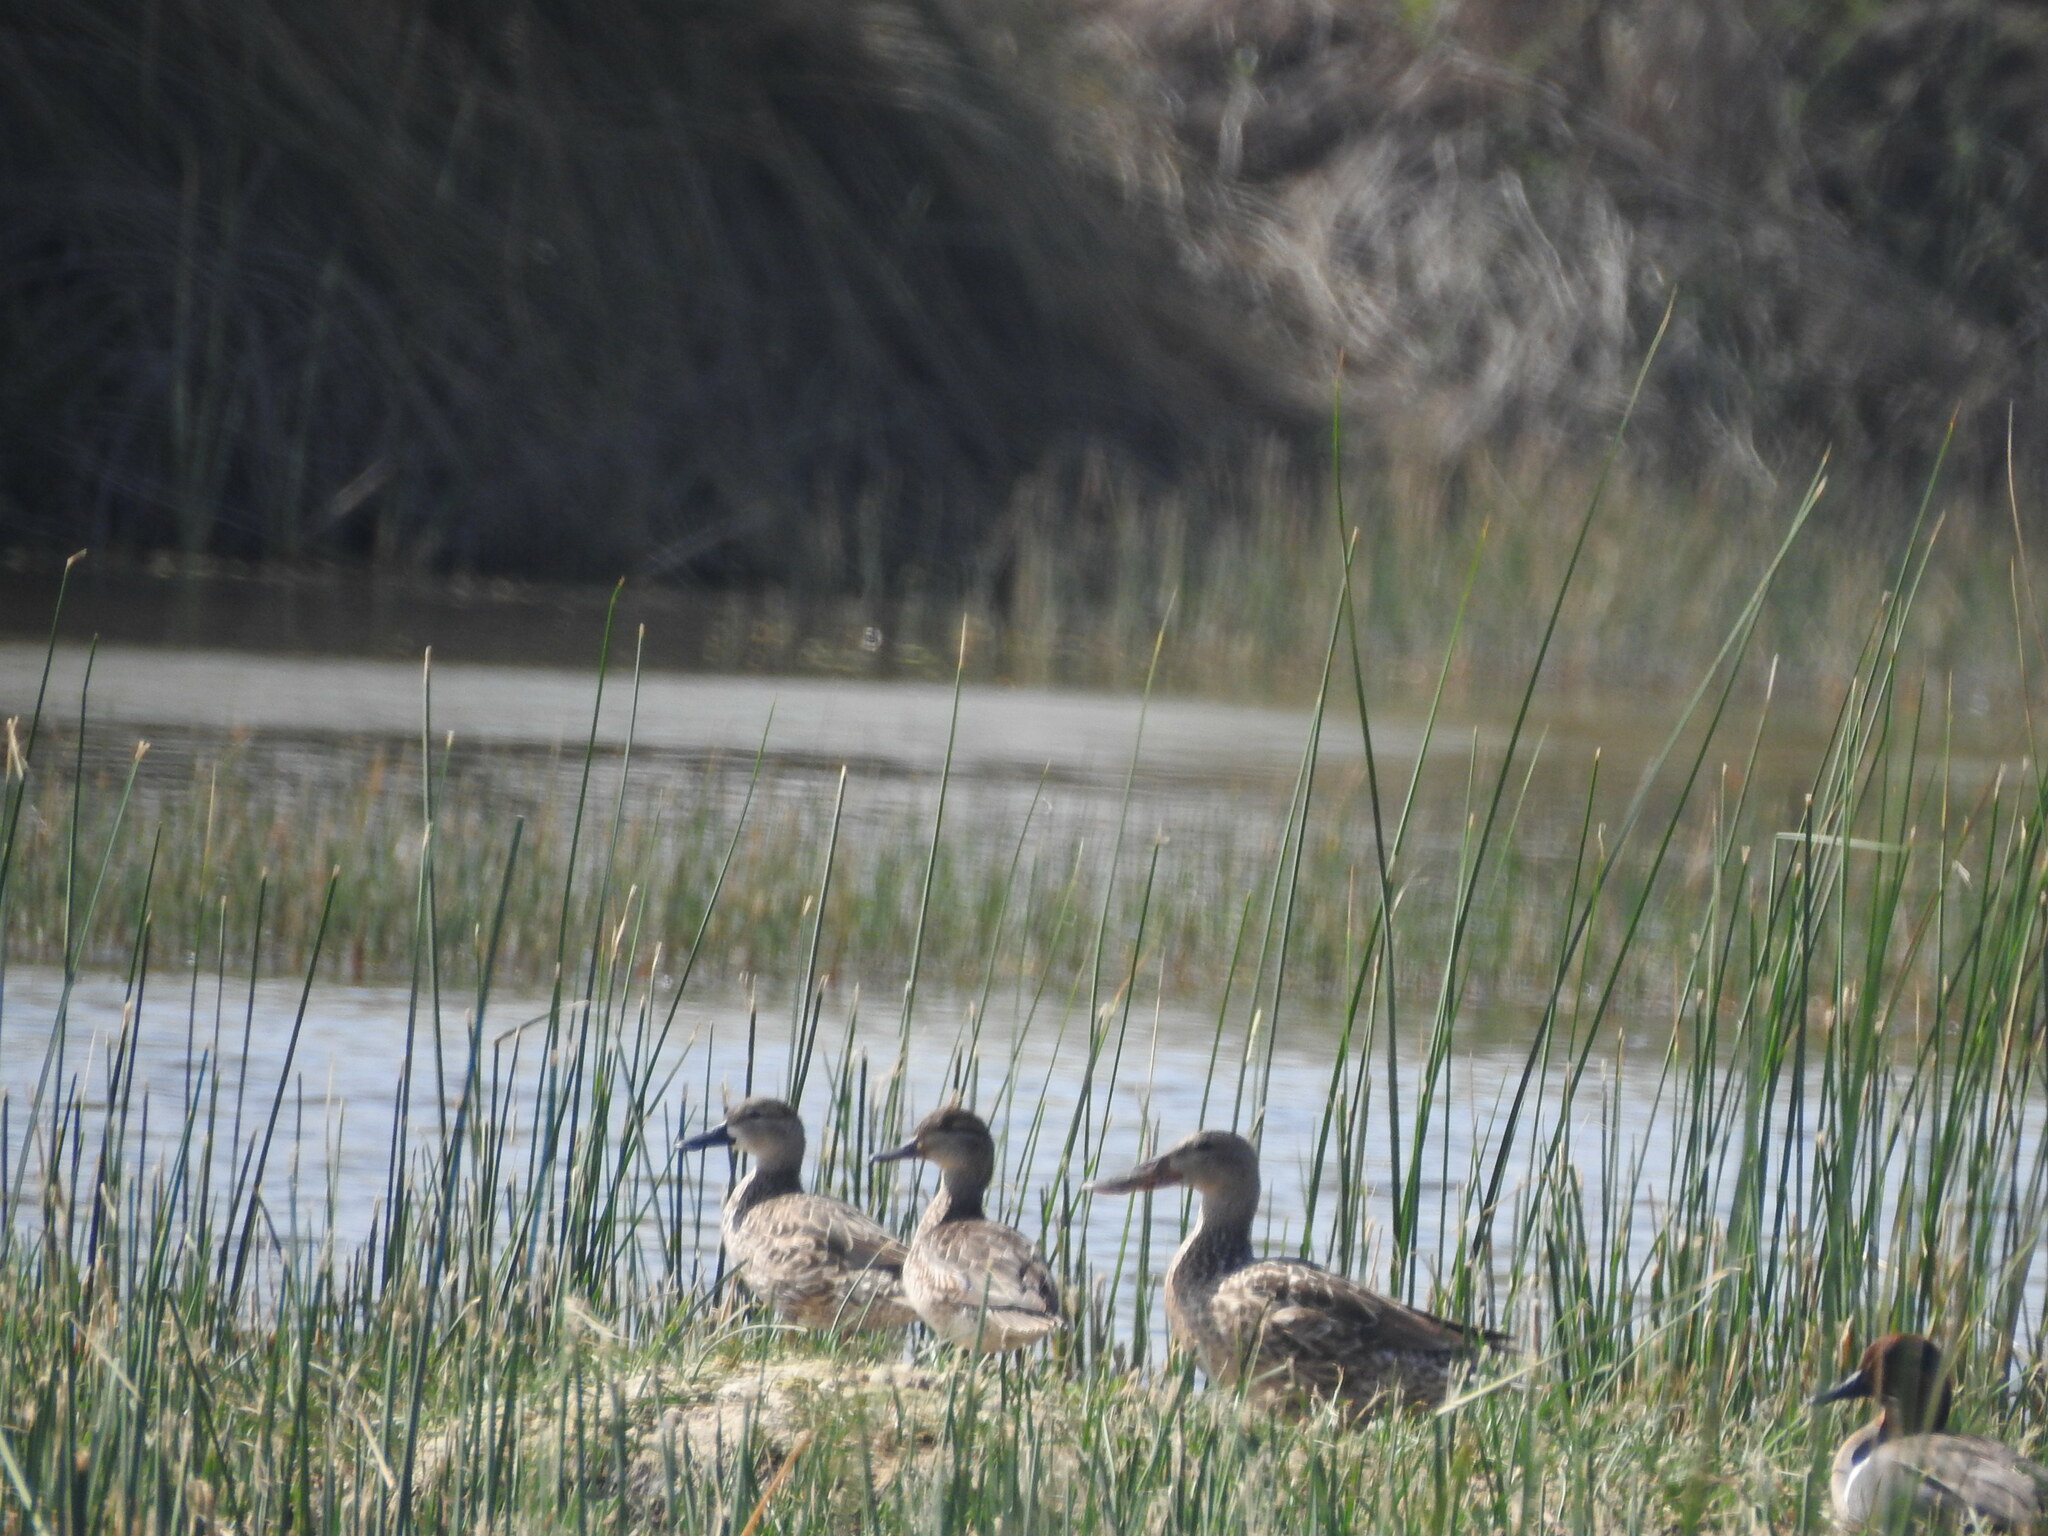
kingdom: Animalia
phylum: Chordata
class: Aves
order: Anseriformes
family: Anatidae
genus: Anas
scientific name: Anas fulvigula
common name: Mottled duck
